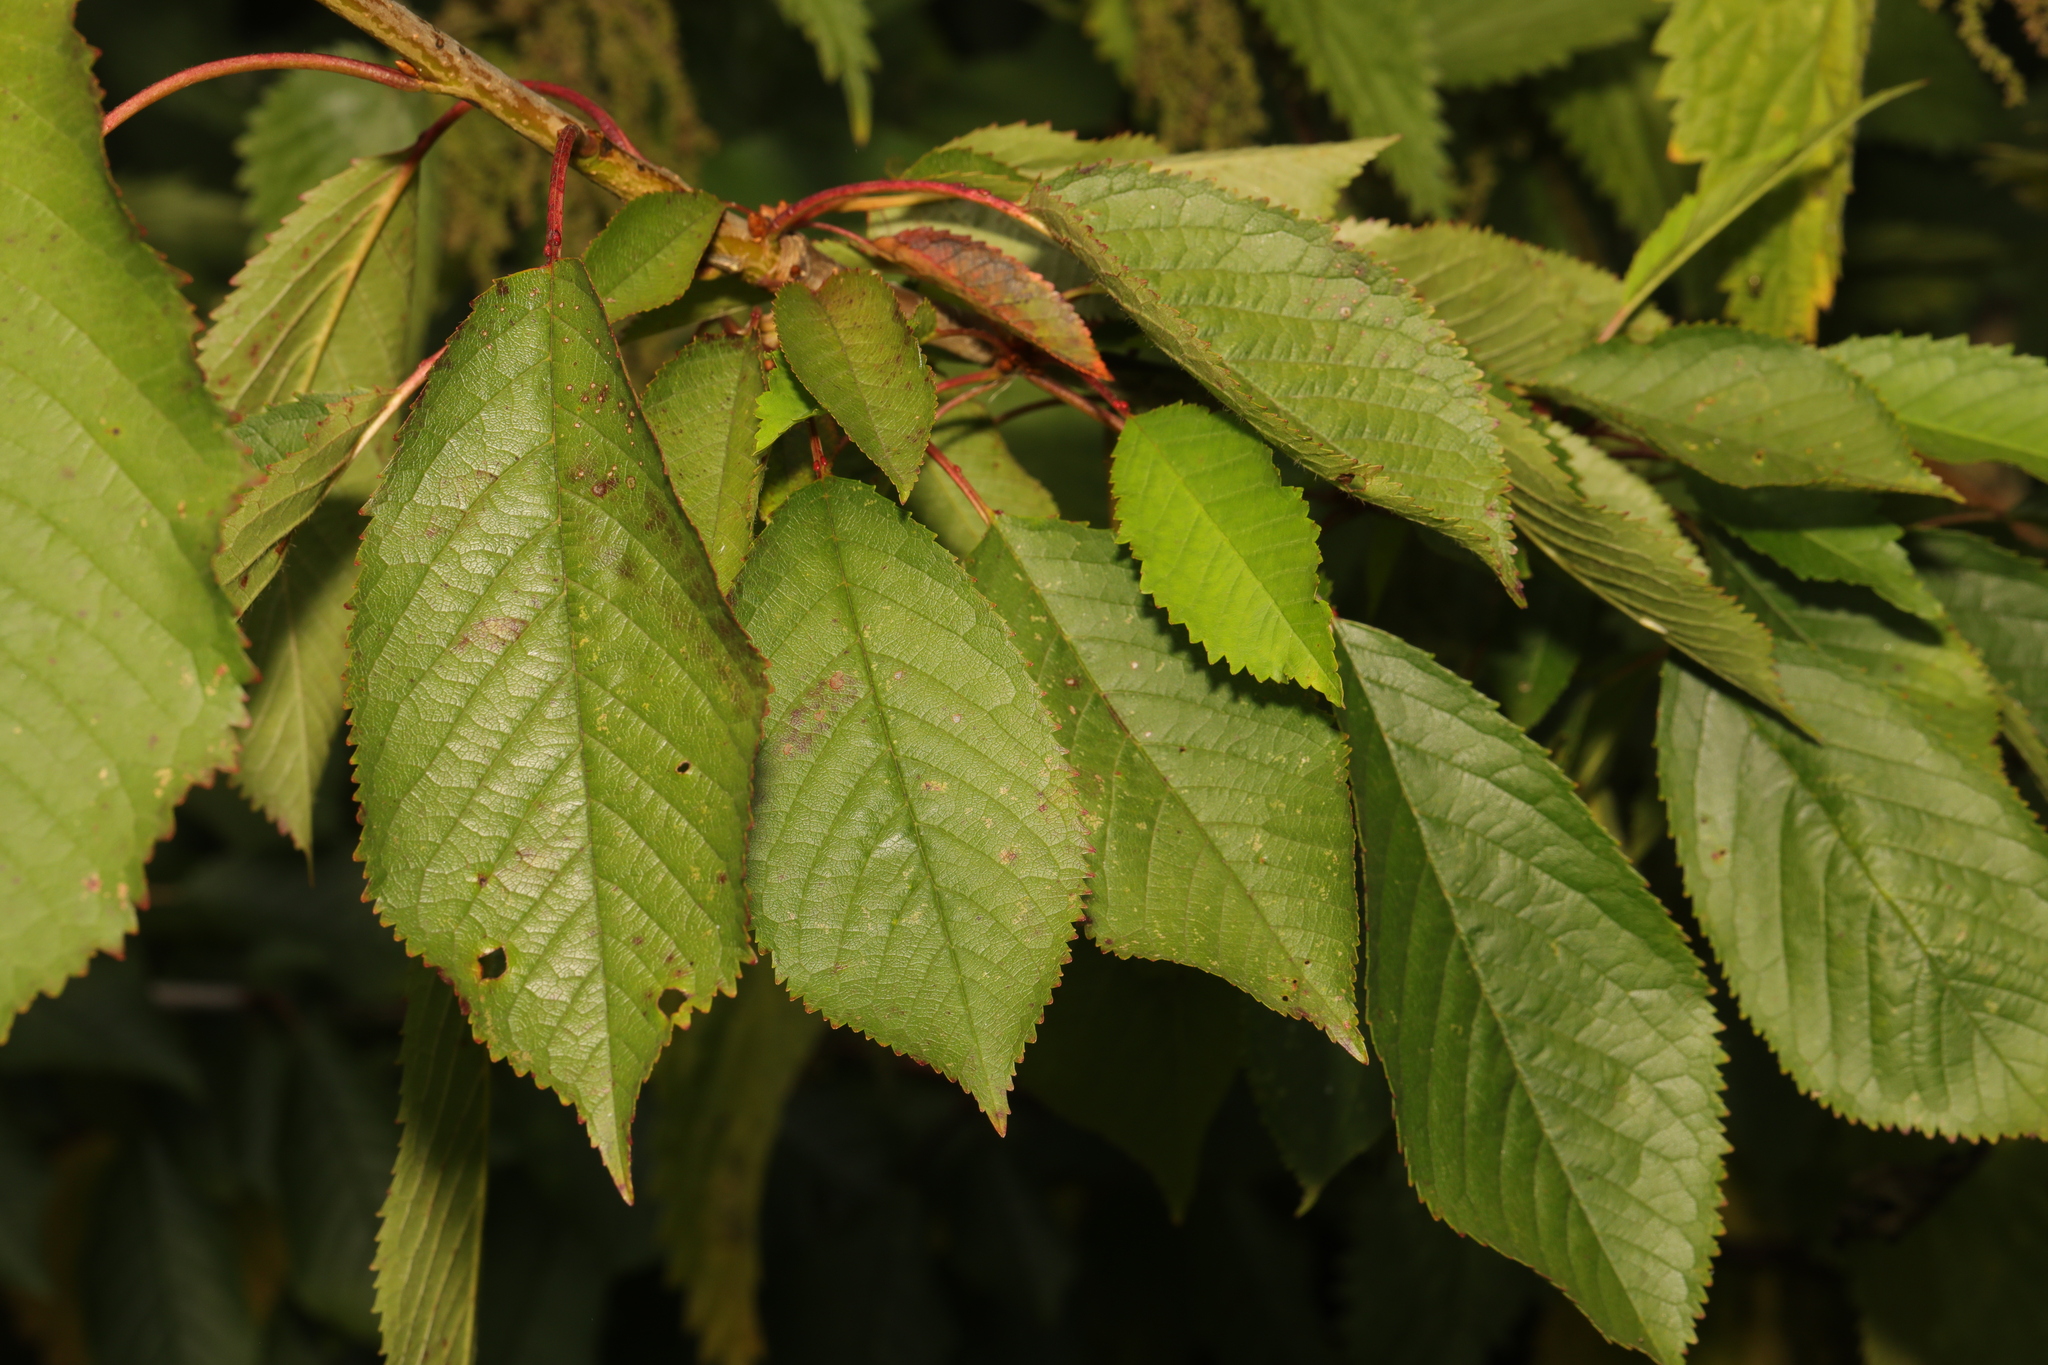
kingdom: Plantae
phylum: Tracheophyta
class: Magnoliopsida
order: Rosales
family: Rosaceae
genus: Prunus
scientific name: Prunus avium
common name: Sweet cherry
